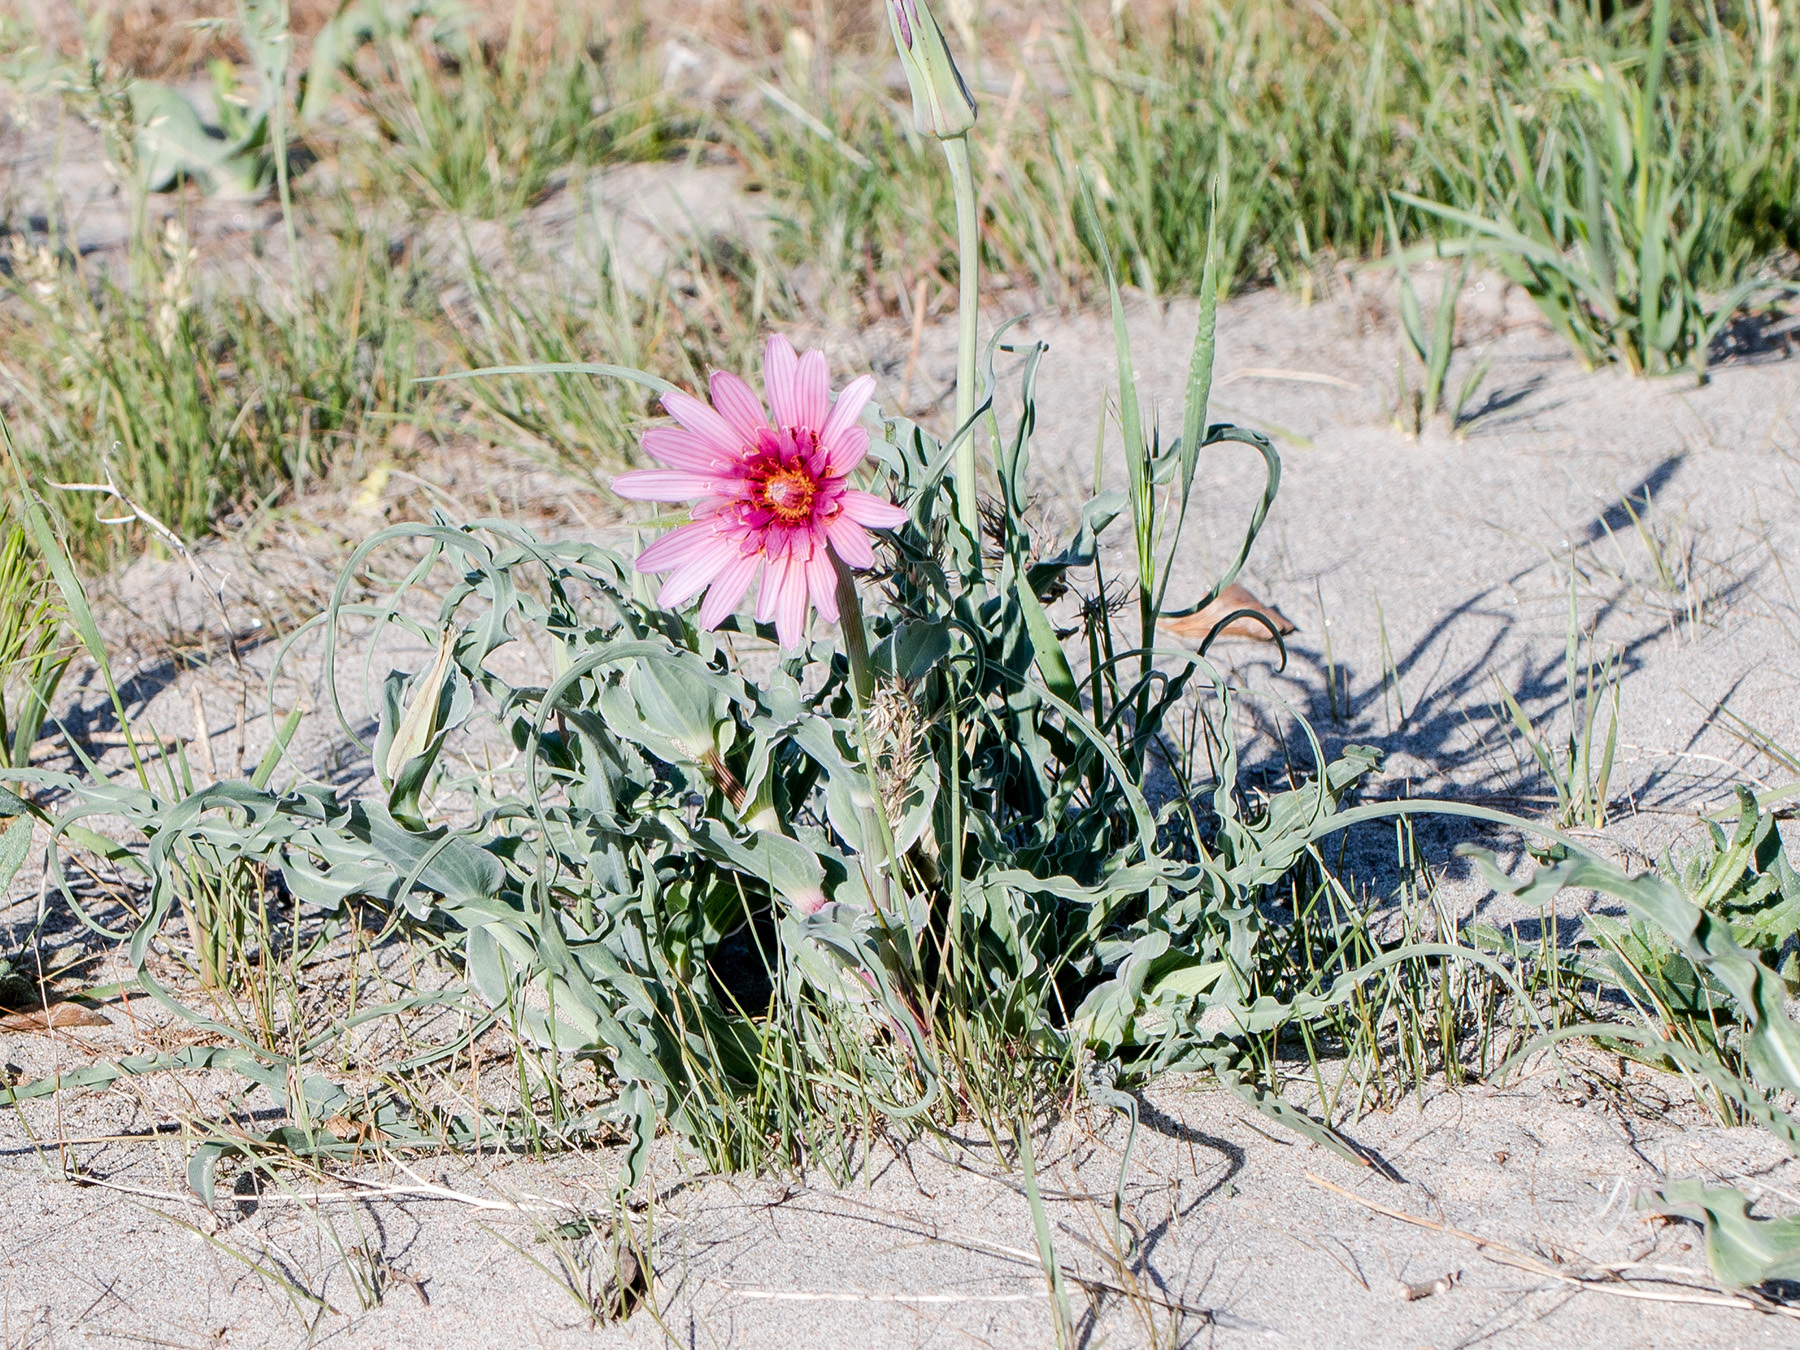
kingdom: Plantae
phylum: Tracheophyta
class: Magnoliopsida
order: Asterales
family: Asteraceae
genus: Tragopogon
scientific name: Tragopogon ruber
